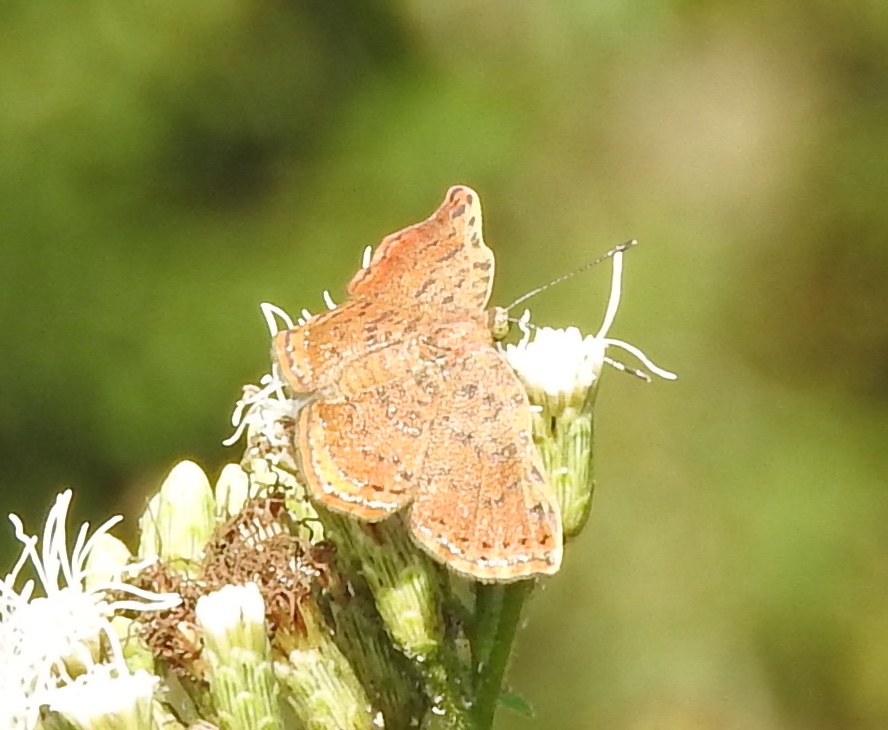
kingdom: Animalia
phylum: Arthropoda
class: Insecta
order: Lepidoptera
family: Riodinidae
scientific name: Riodinidae
